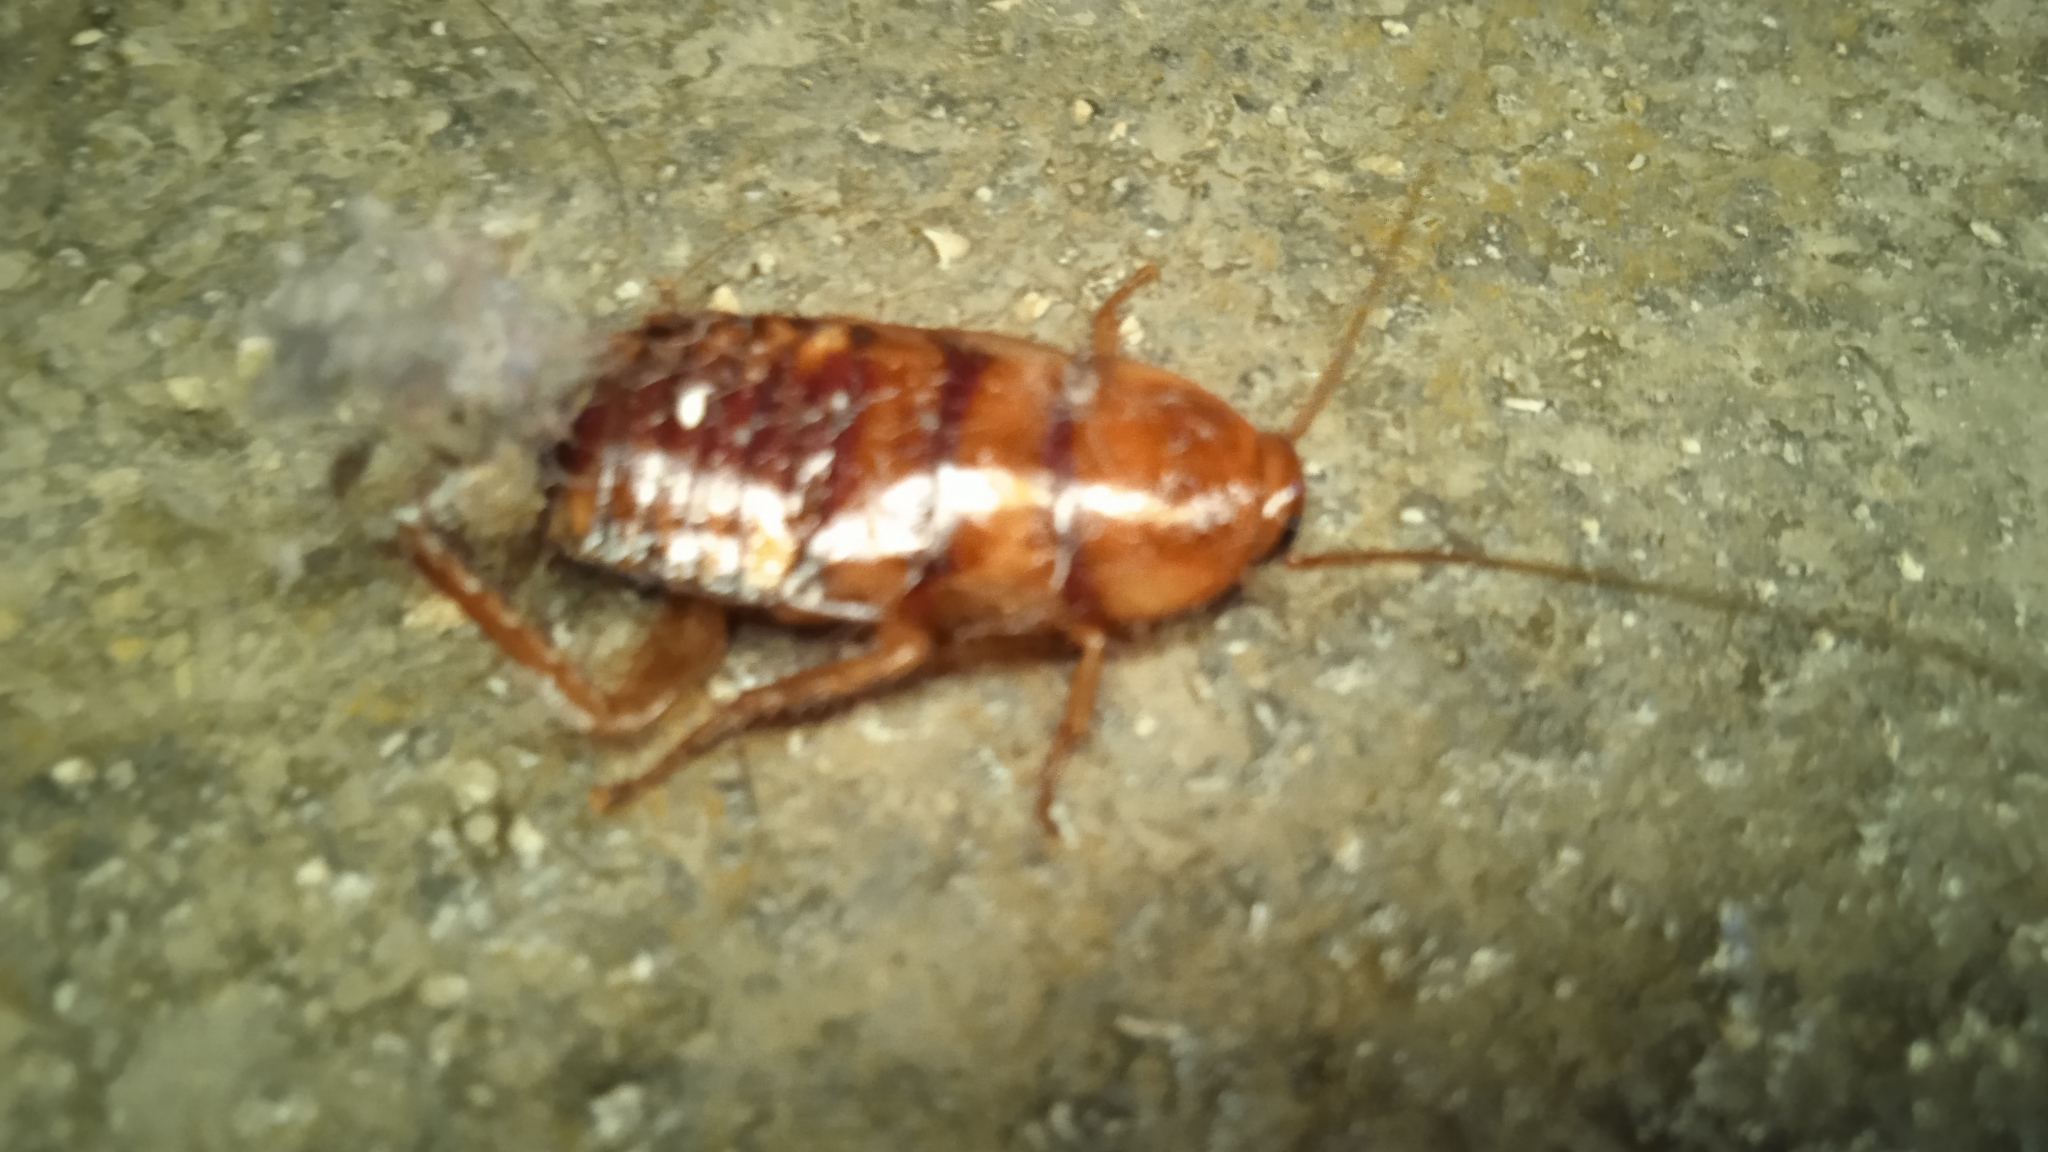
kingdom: Animalia
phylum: Arthropoda
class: Insecta
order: Blattodea
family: Blattidae
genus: Periplaneta
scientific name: Periplaneta americana
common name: American cockroach
